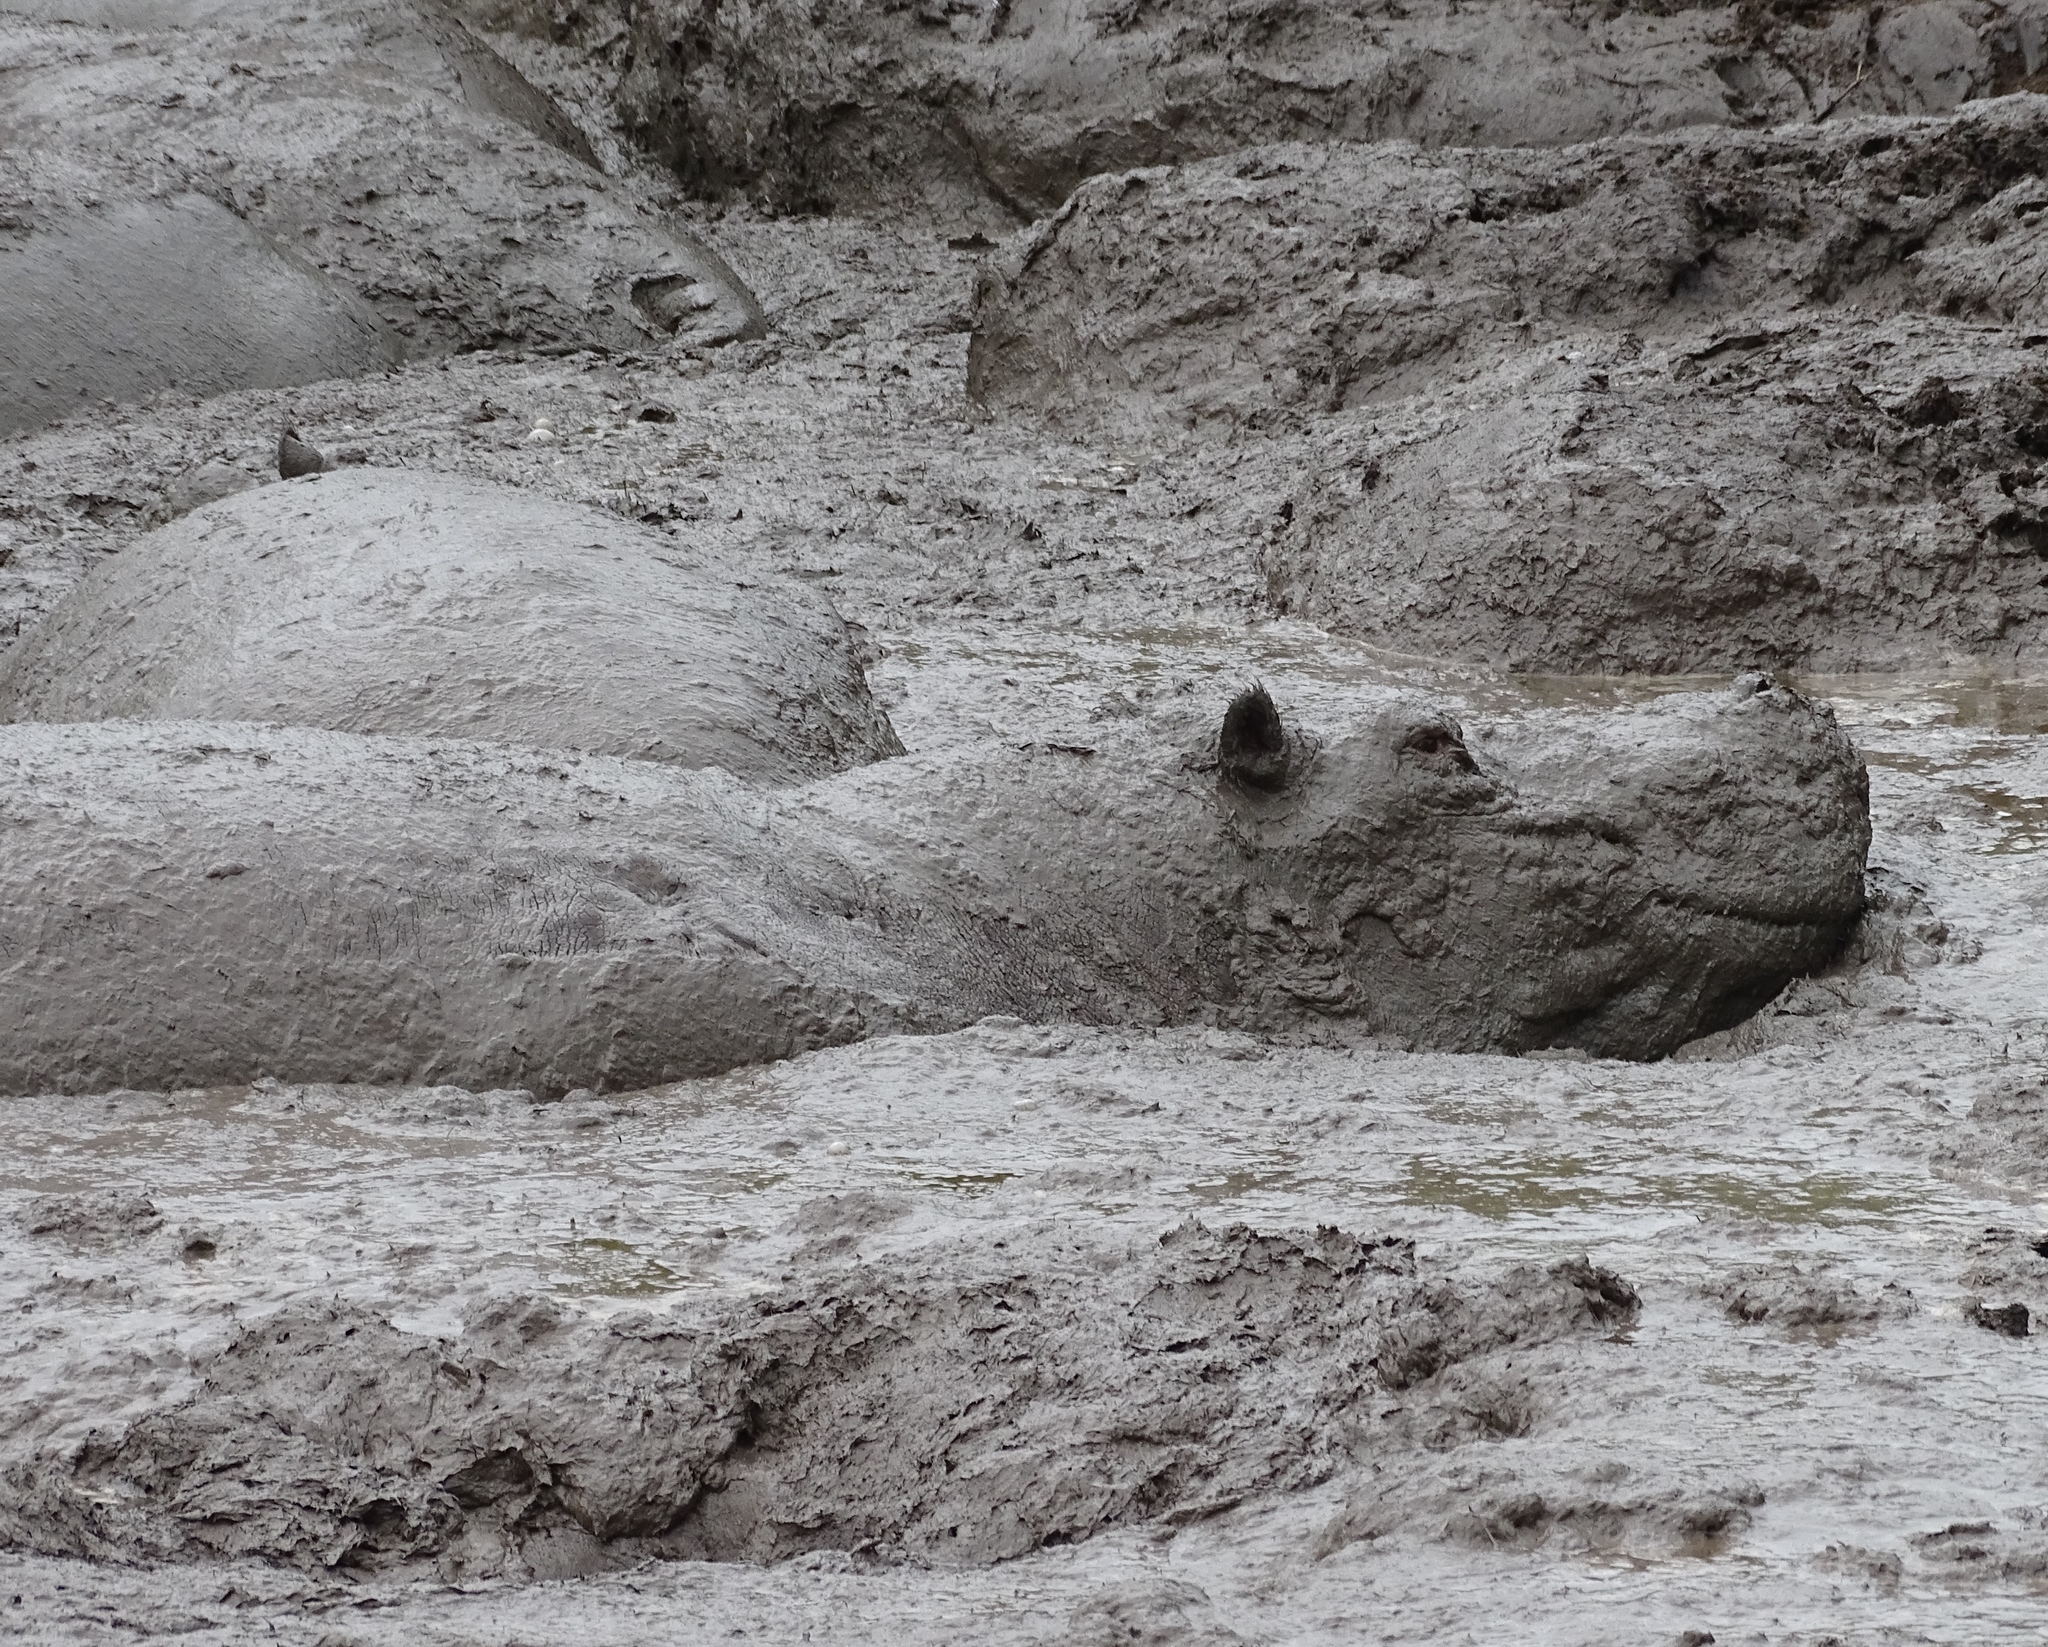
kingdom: Animalia
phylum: Chordata
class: Mammalia
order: Artiodactyla
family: Hippopotamidae
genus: Hippopotamus
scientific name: Hippopotamus amphibius
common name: Common hippopotamus
